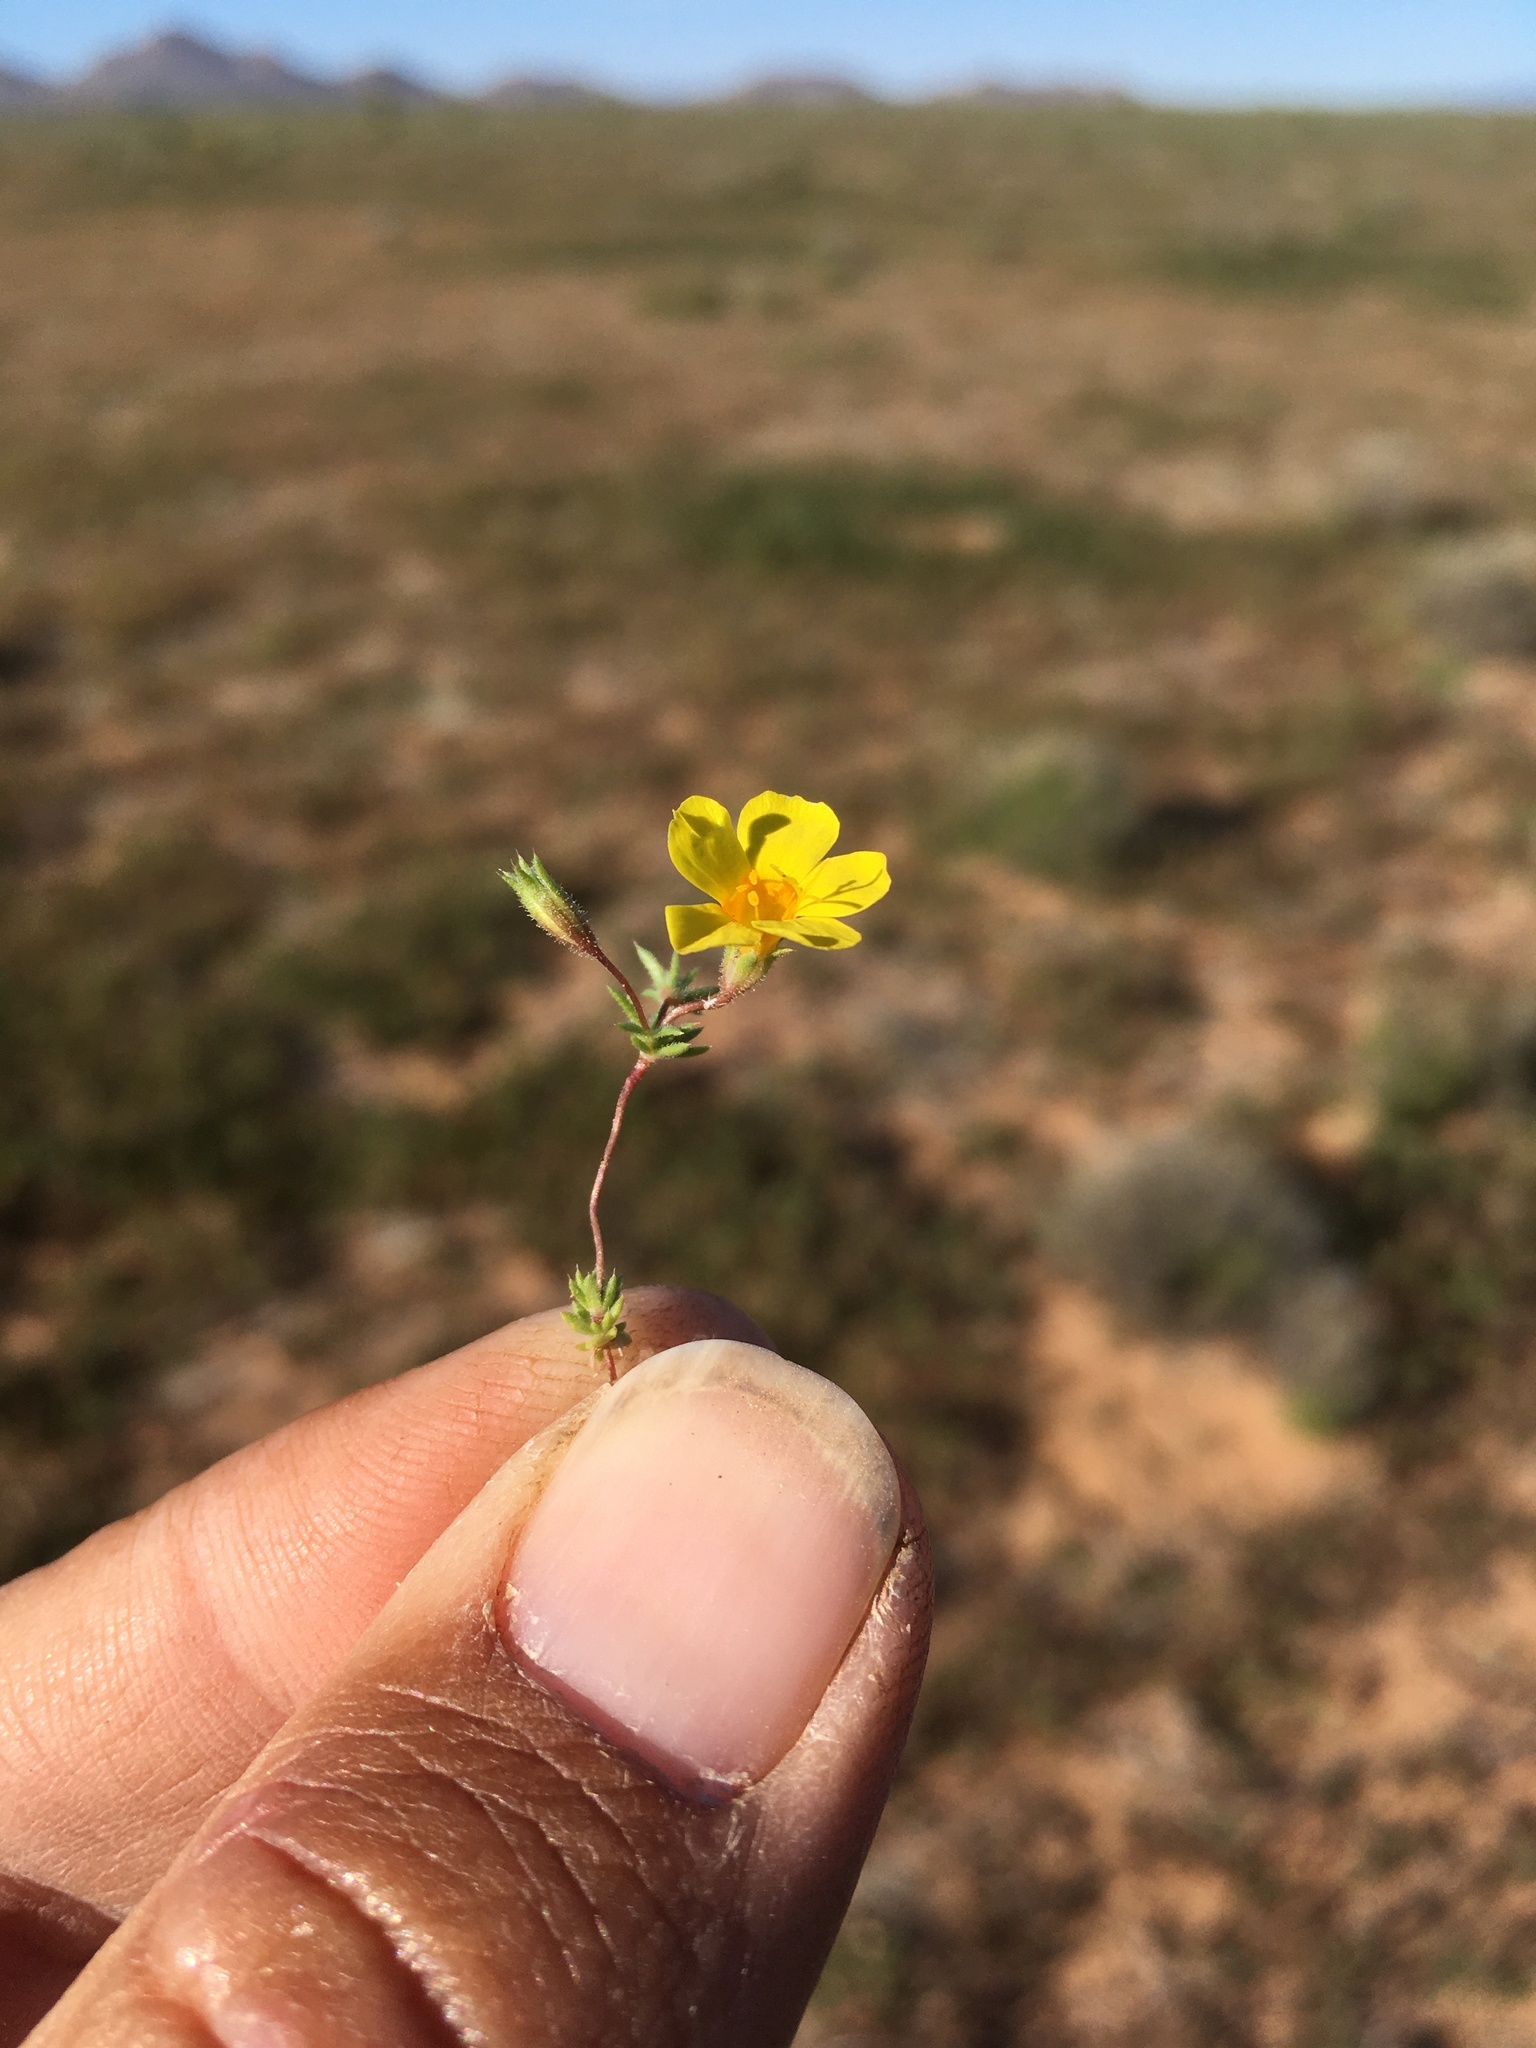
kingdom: Plantae
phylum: Tracheophyta
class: Magnoliopsida
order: Ericales
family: Polemoniaceae
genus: Leptosiphon
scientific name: Leptosiphon chrysanthus
